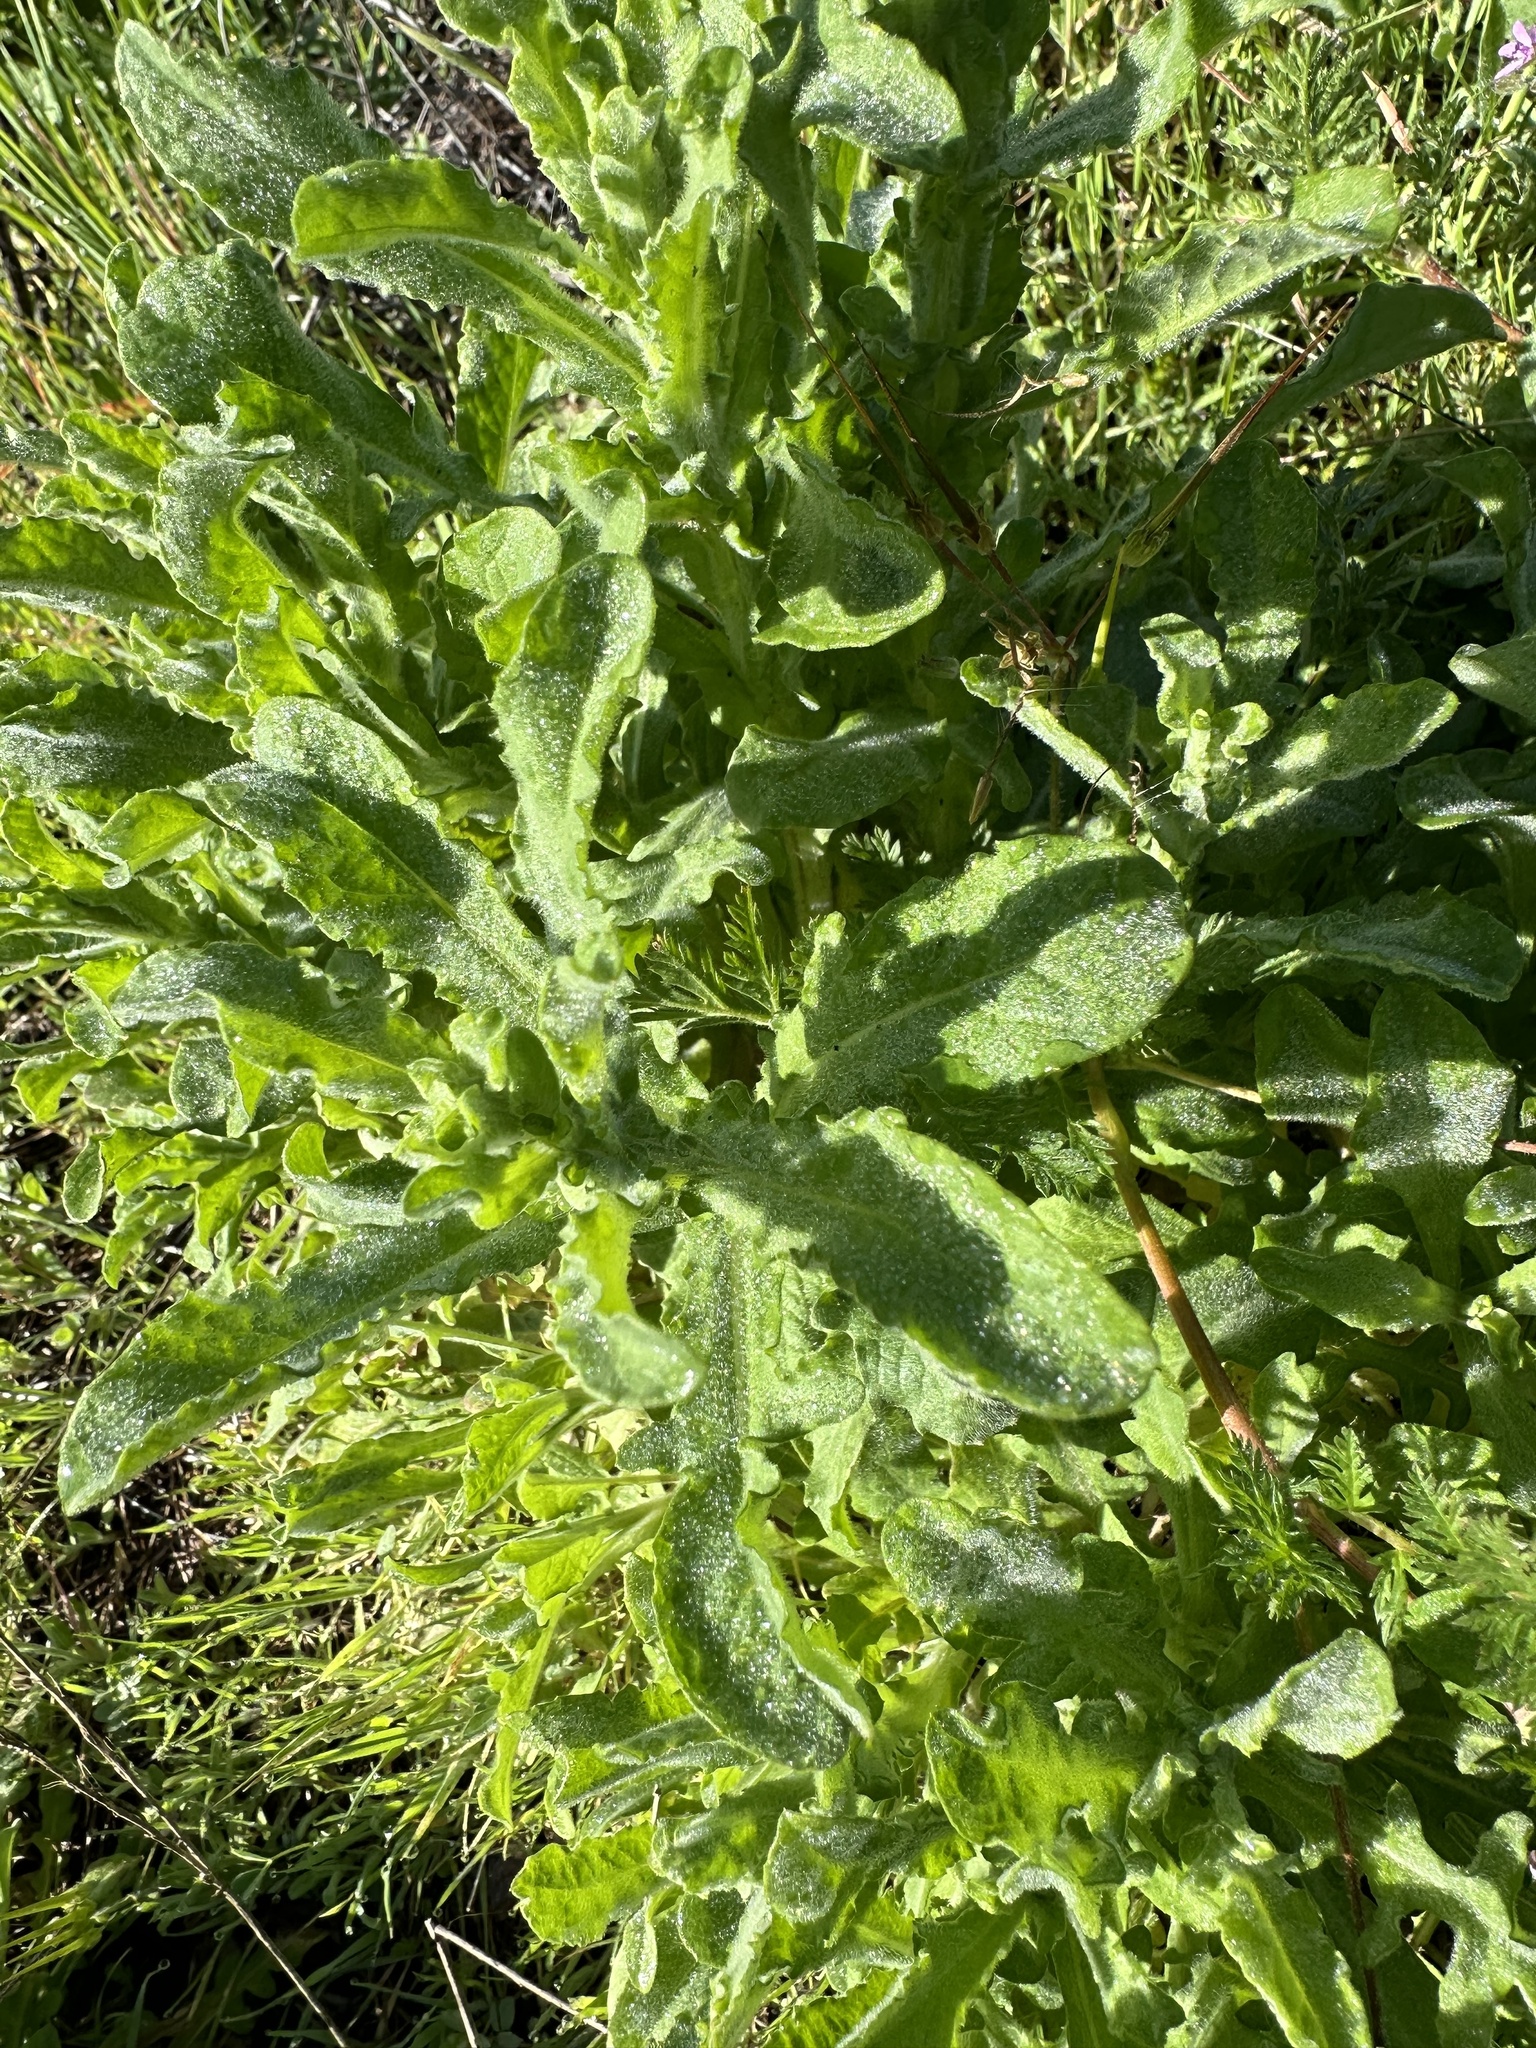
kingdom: Plantae
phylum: Tracheophyta
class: Magnoliopsida
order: Geraniales
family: Geraniaceae
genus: Erodium
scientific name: Erodium cicutarium
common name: Common stork's-bill
